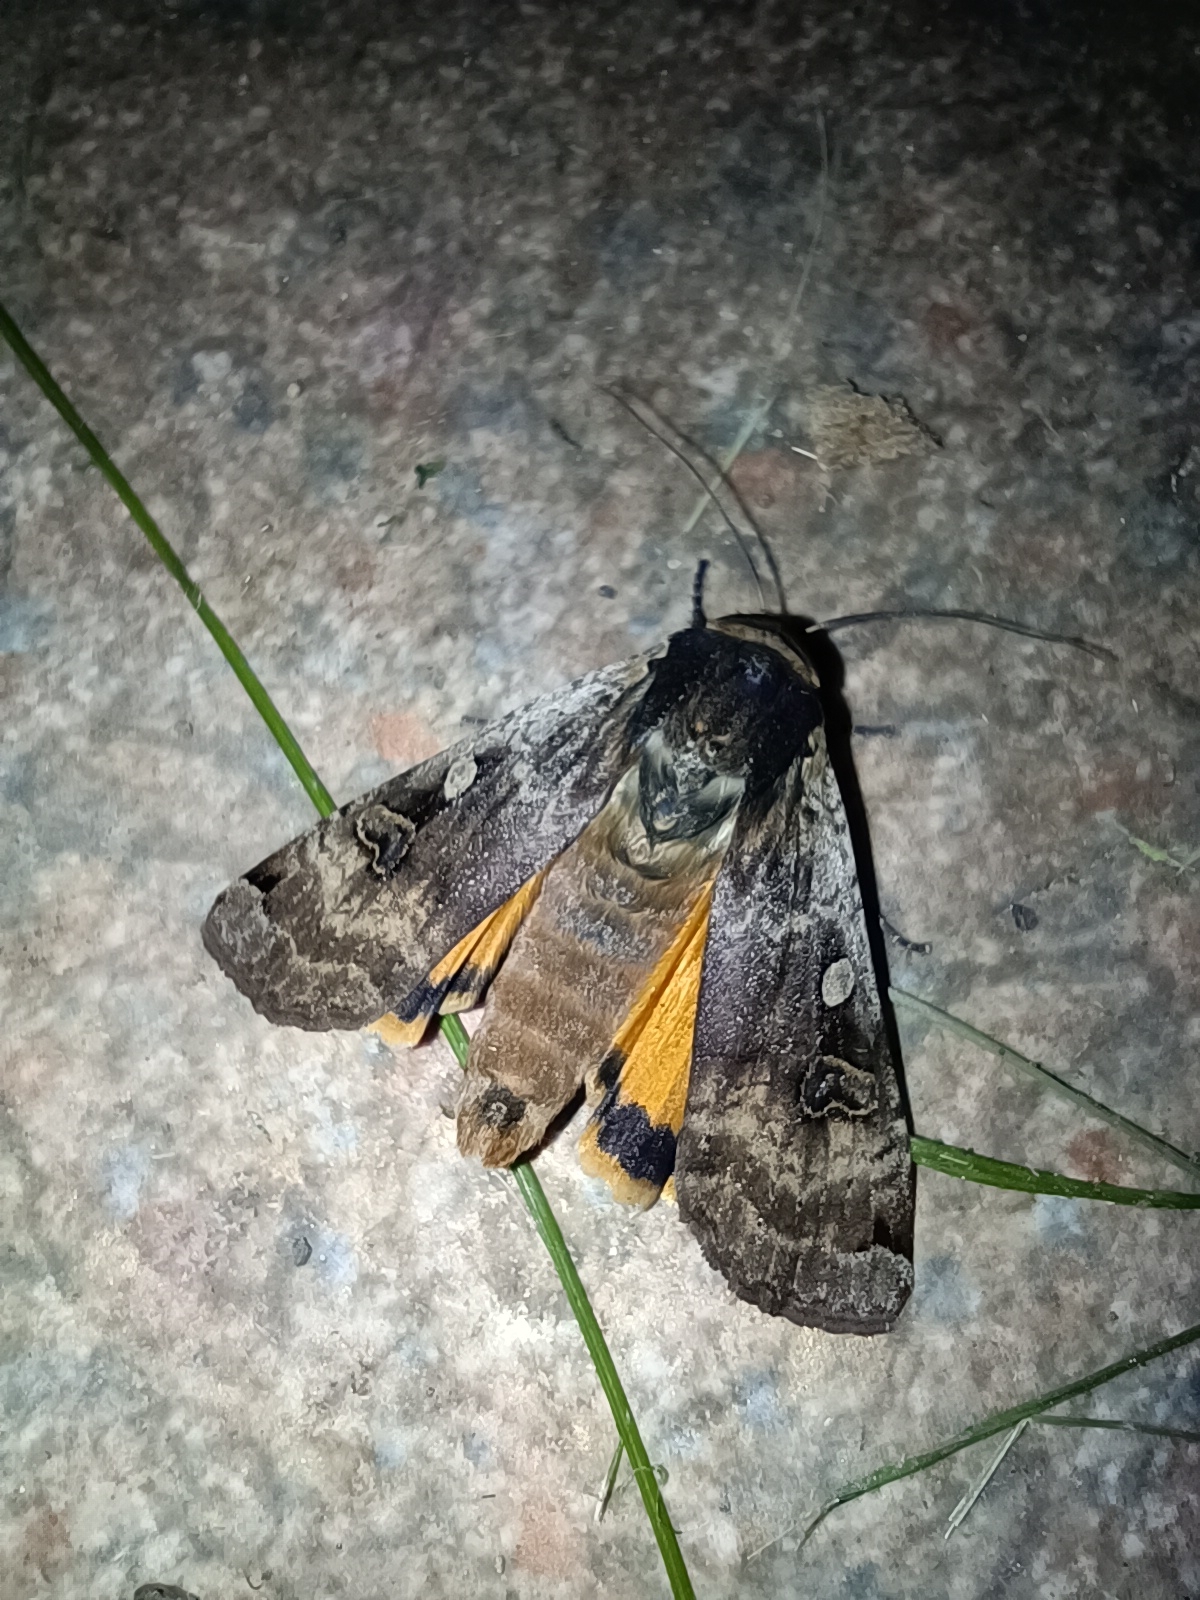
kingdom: Animalia
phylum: Arthropoda
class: Insecta
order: Lepidoptera
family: Noctuidae
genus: Noctua
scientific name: Noctua pronuba
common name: Large yellow underwing
